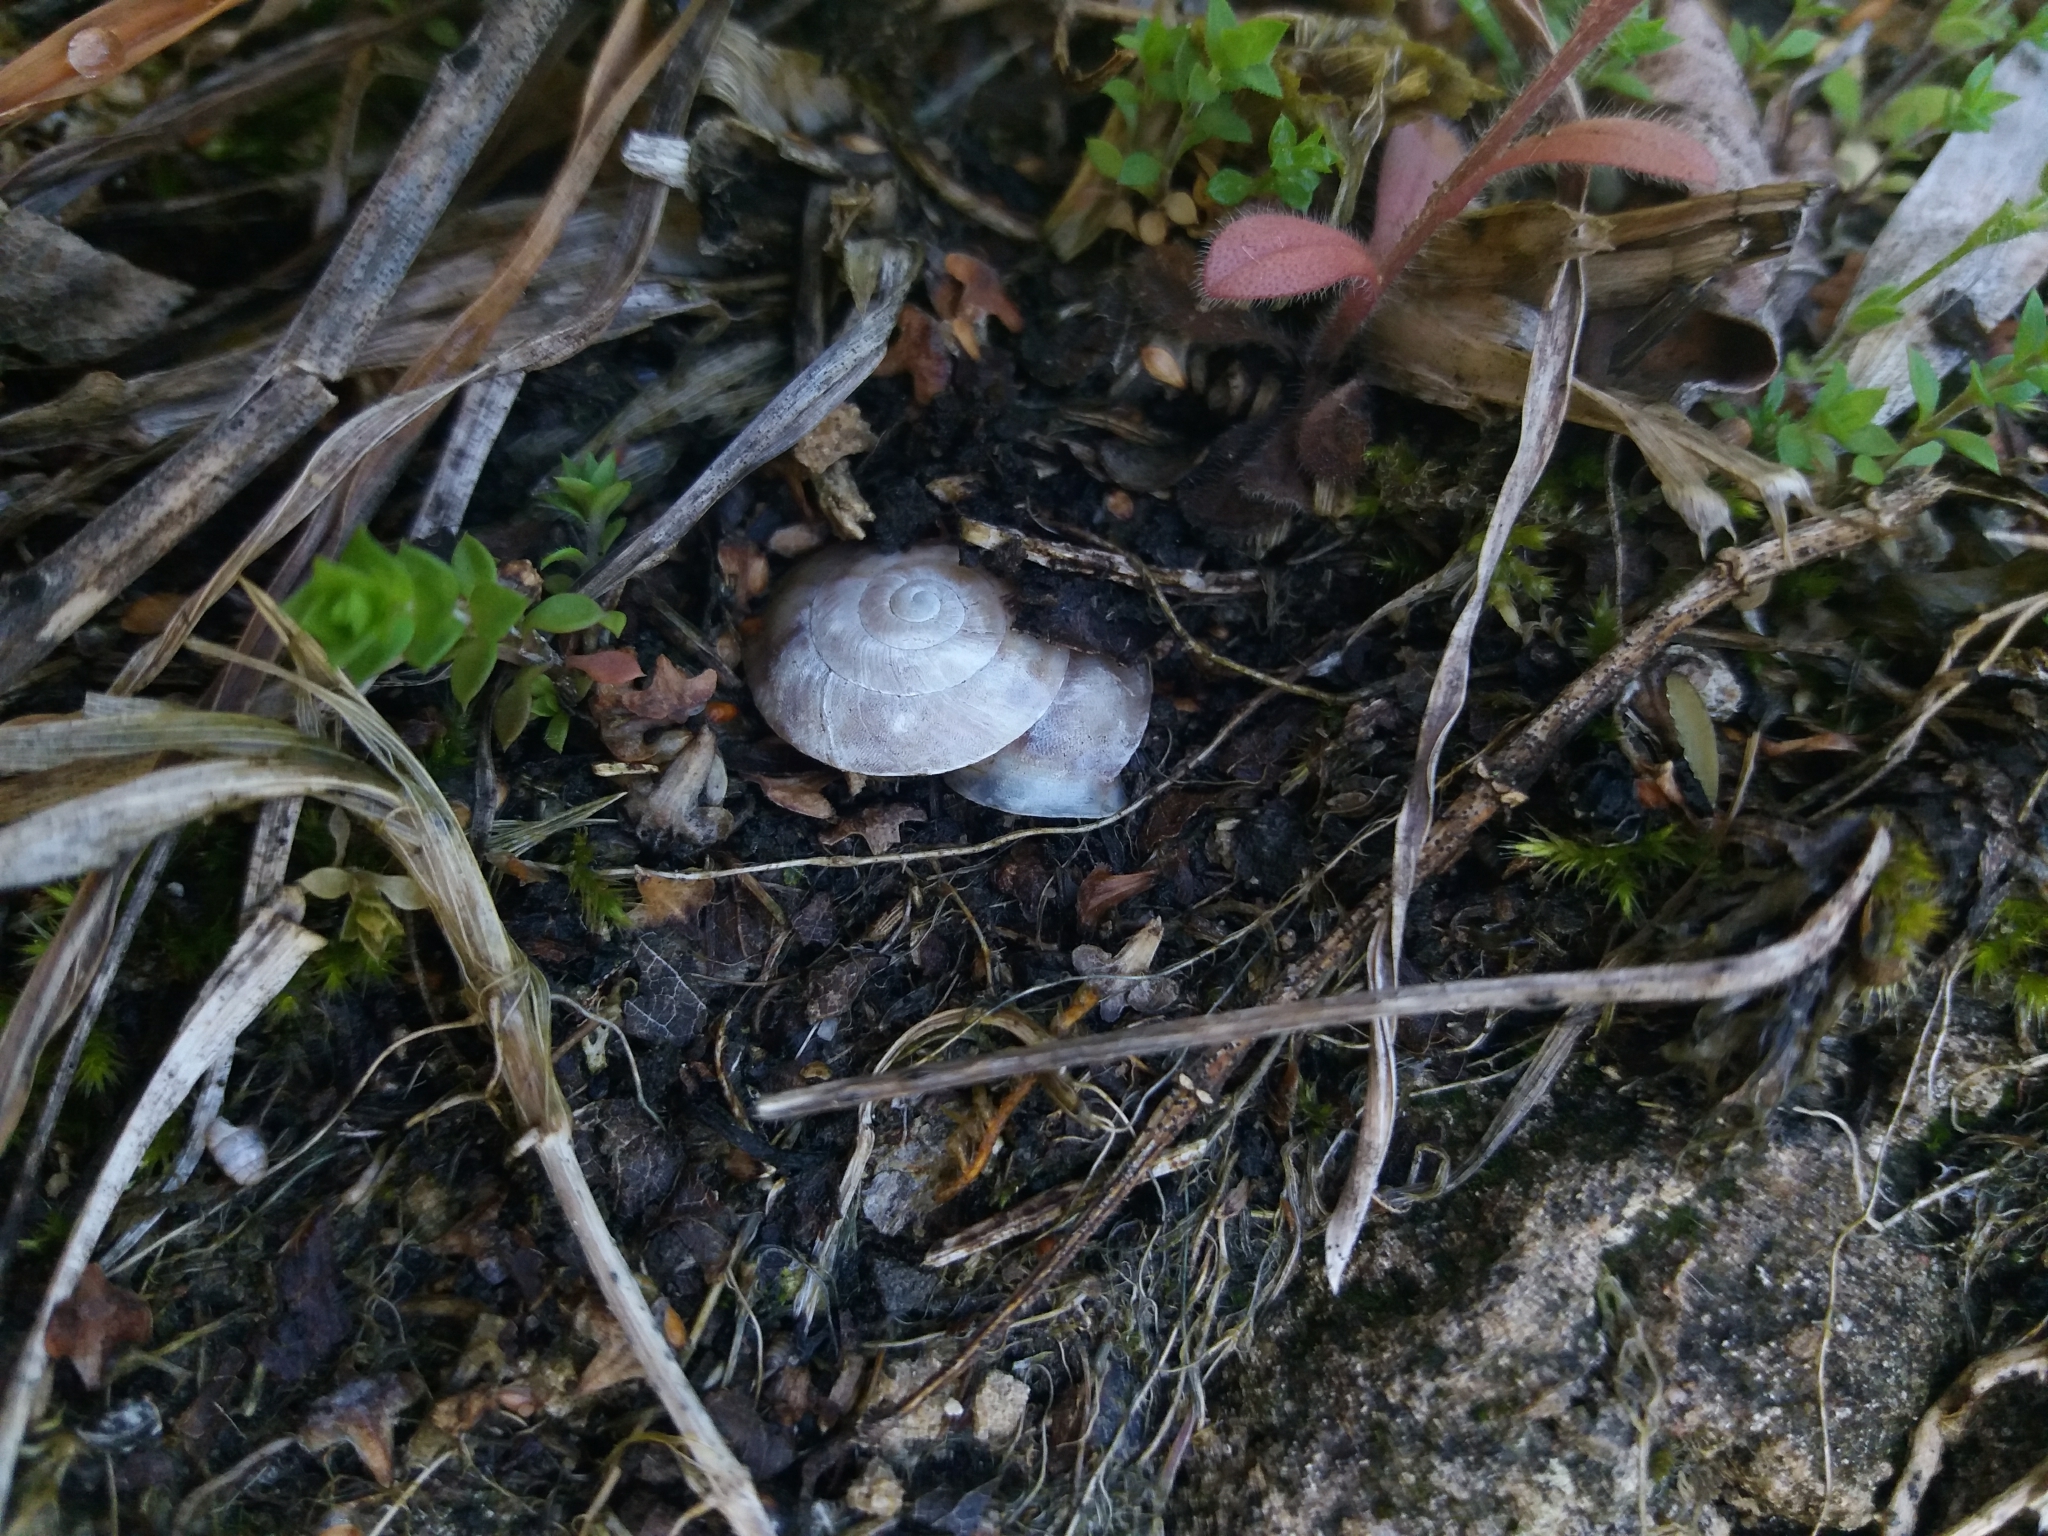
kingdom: Animalia
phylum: Mollusca
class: Gastropoda
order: Stylommatophora
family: Helicidae
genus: Helicigona
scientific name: Helicigona lapicida
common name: Lapidary snail
